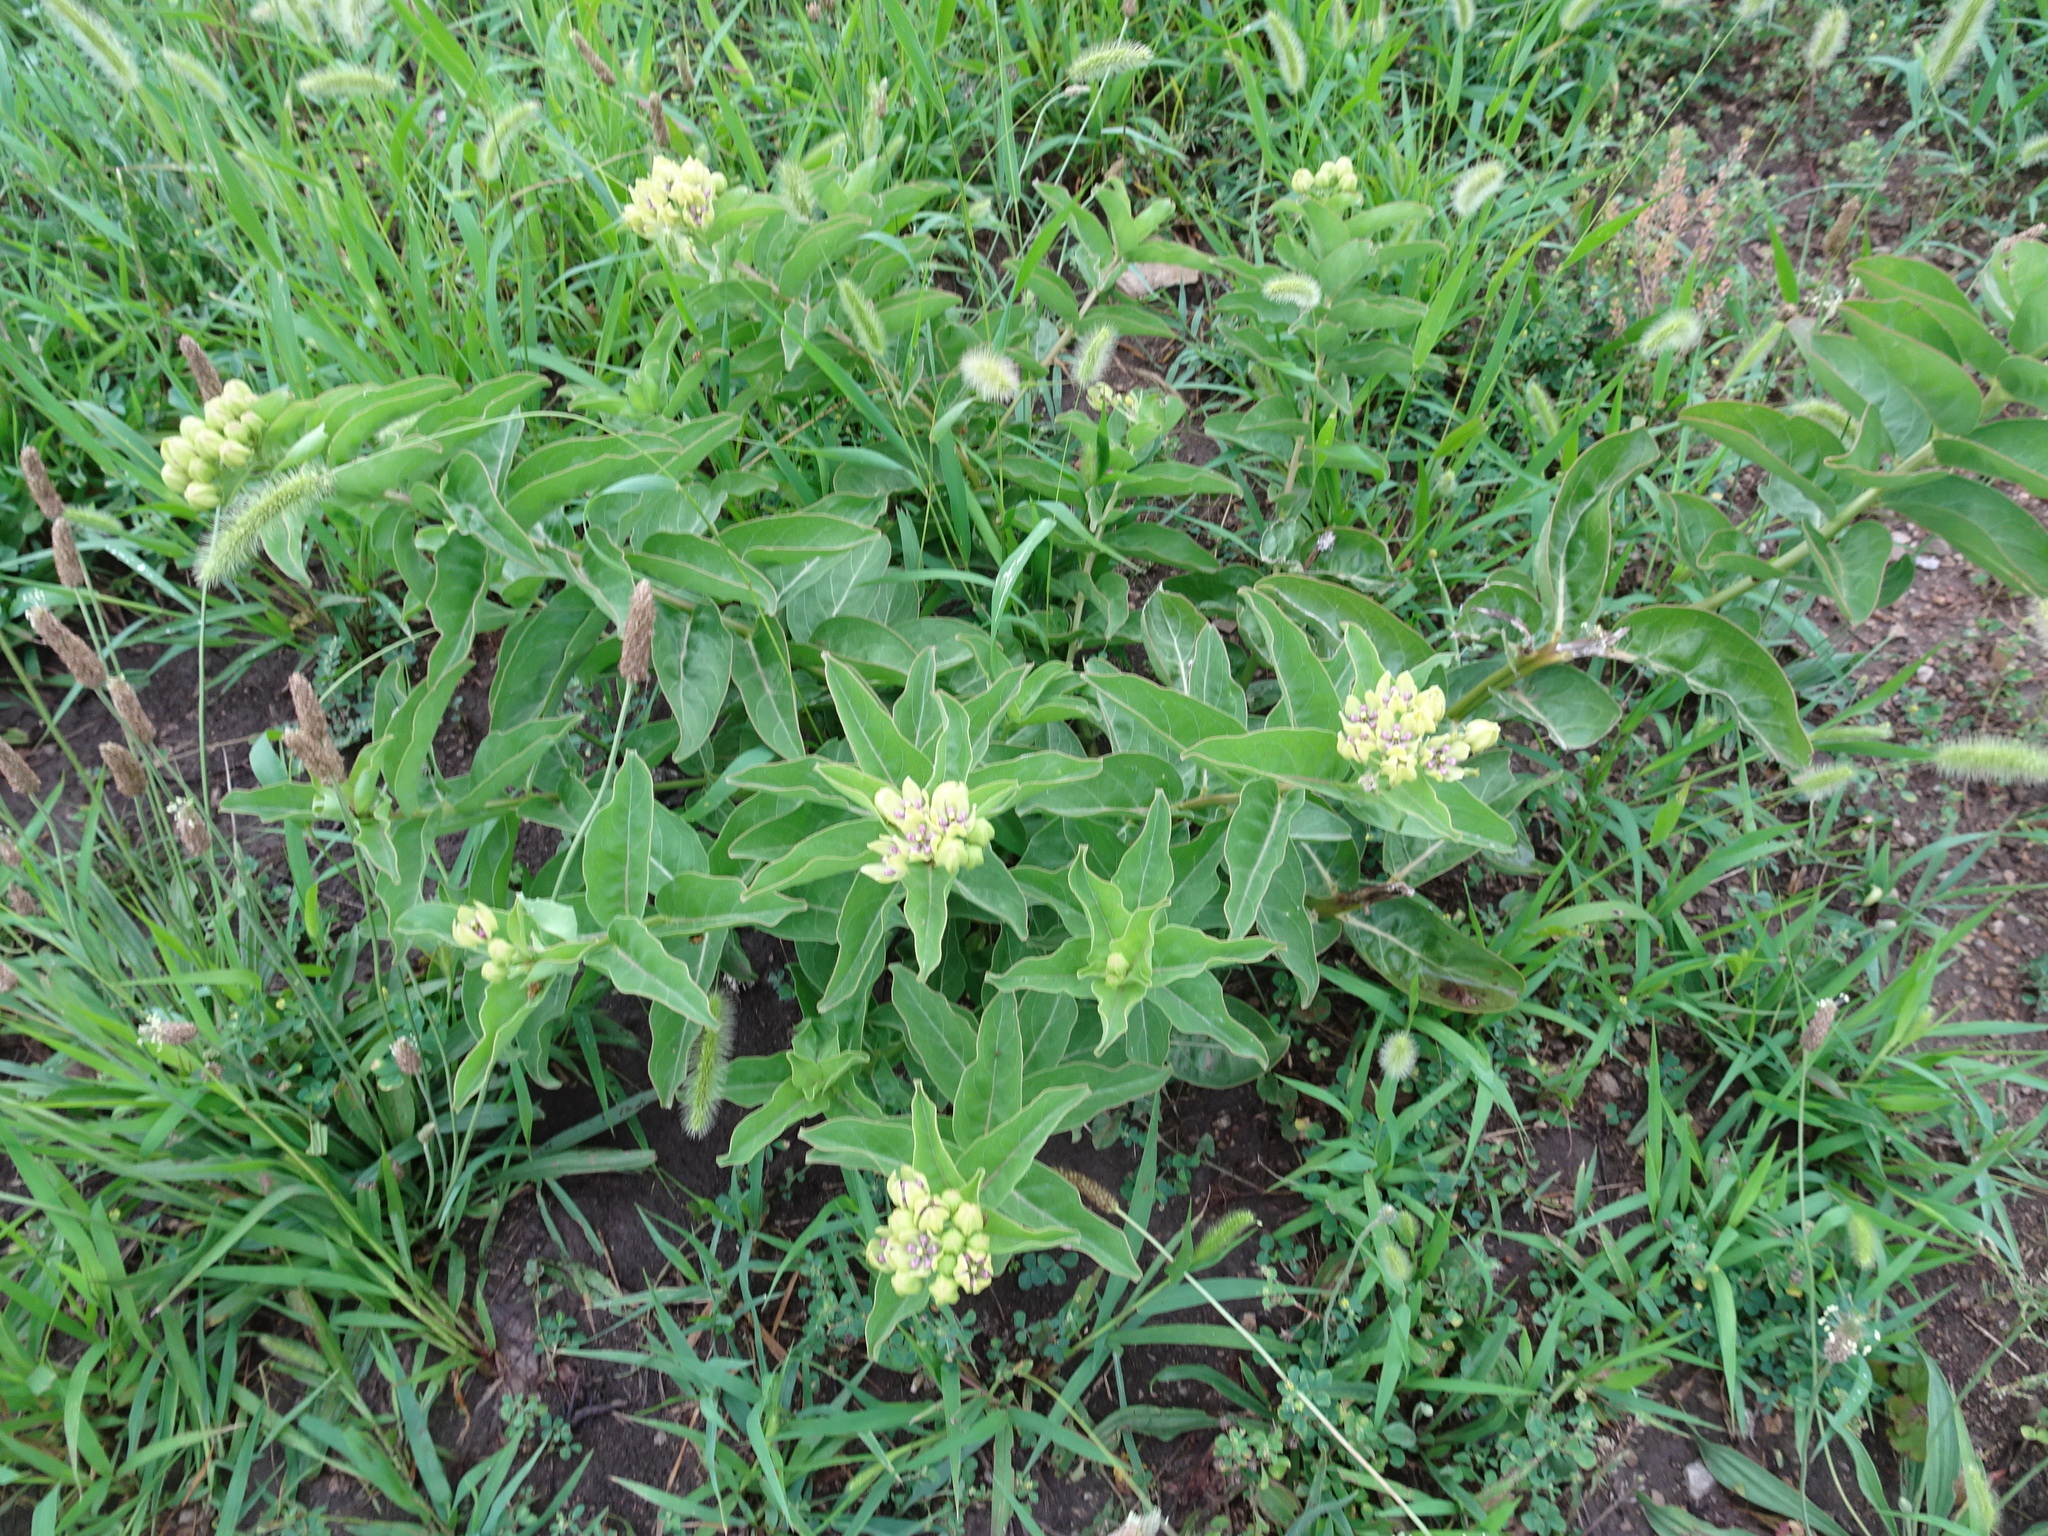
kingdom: Plantae
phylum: Tracheophyta
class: Magnoliopsida
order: Gentianales
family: Apocynaceae
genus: Asclepias
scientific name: Asclepias viridis
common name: Antelope-horns
